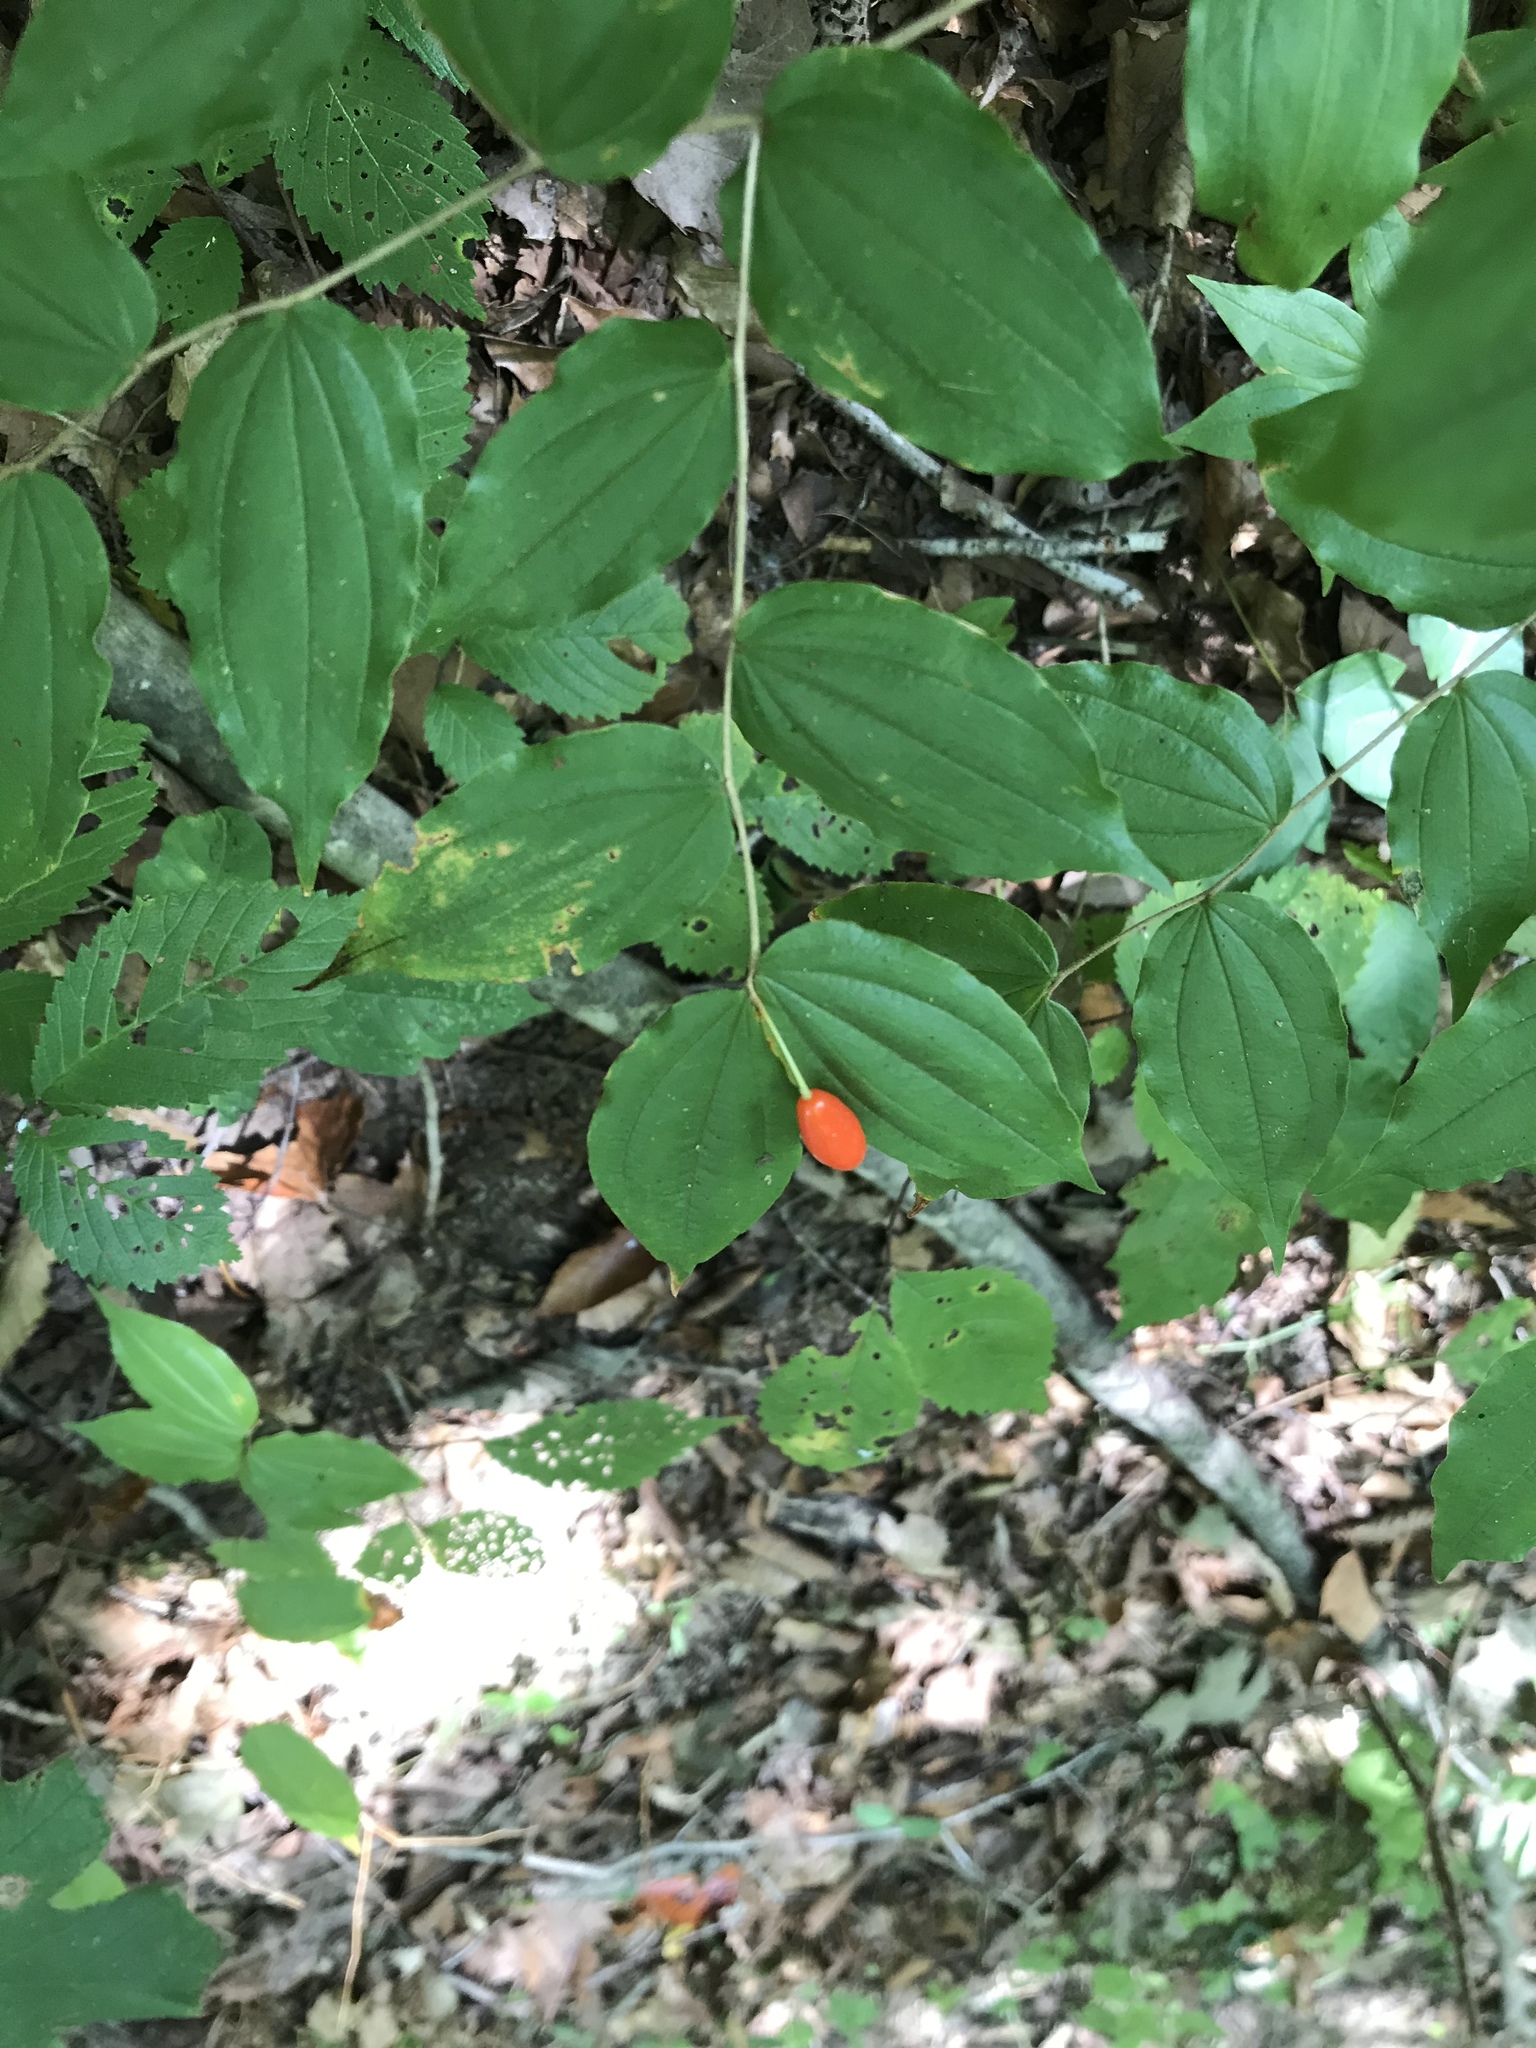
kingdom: Plantae
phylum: Tracheophyta
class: Liliopsida
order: Liliales
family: Liliaceae
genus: Prosartes
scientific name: Prosartes lanuginosa
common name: Hairy mandarin
